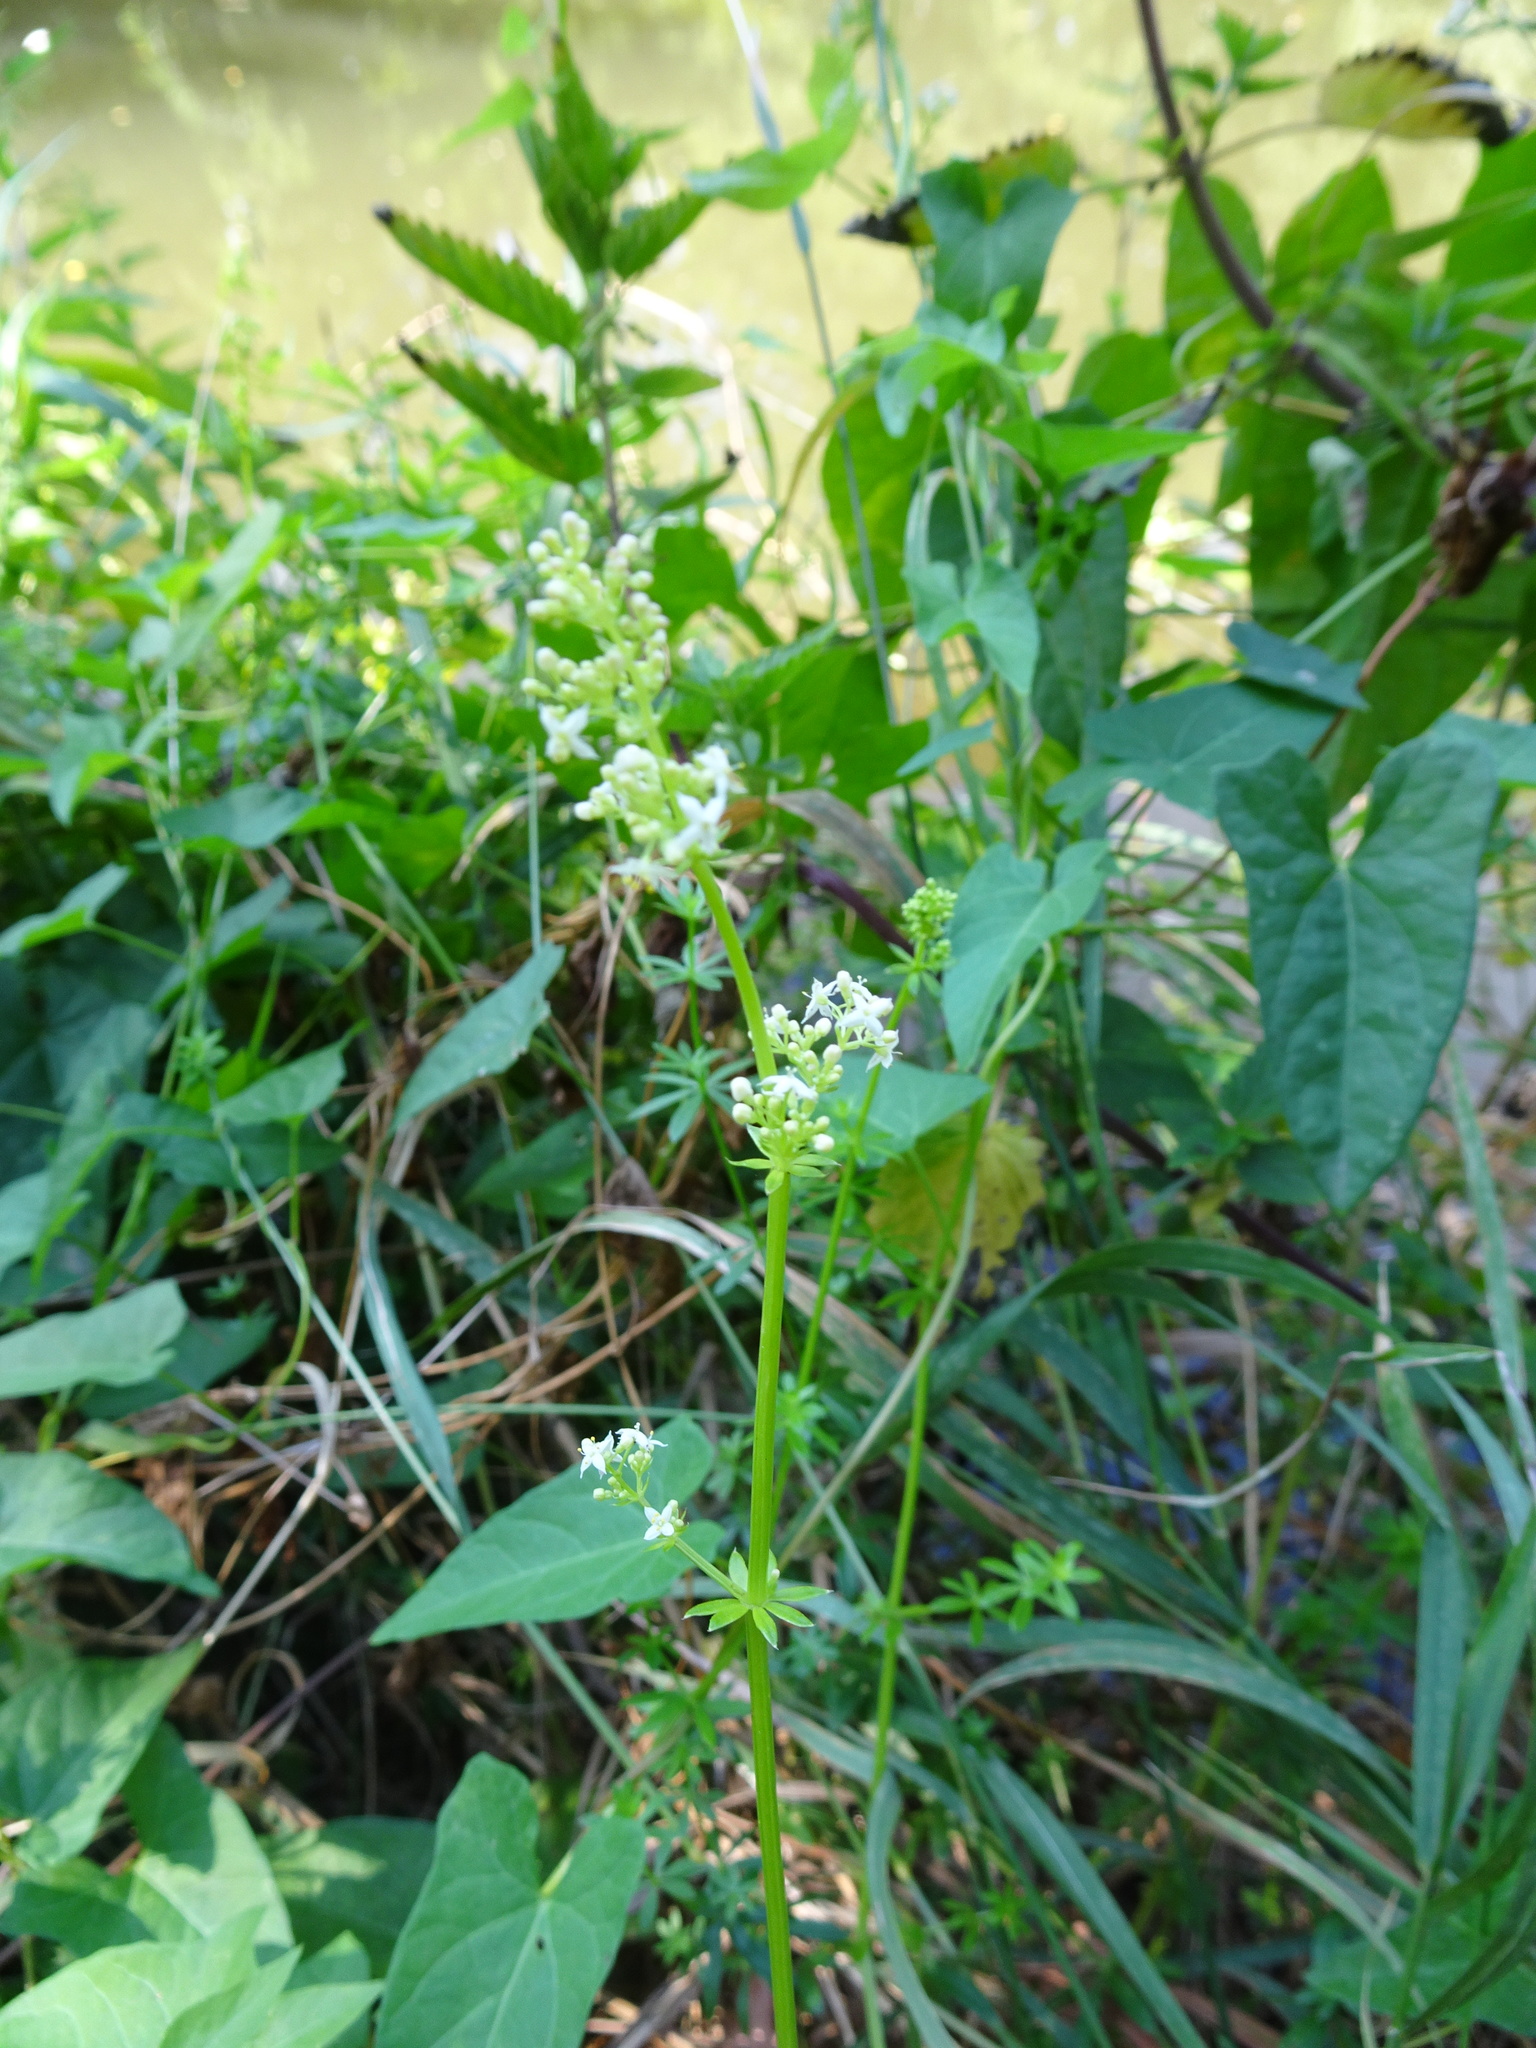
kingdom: Plantae
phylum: Tracheophyta
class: Magnoliopsida
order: Gentianales
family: Rubiaceae
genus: Galium
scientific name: Galium mollugo
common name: Hedge bedstraw
